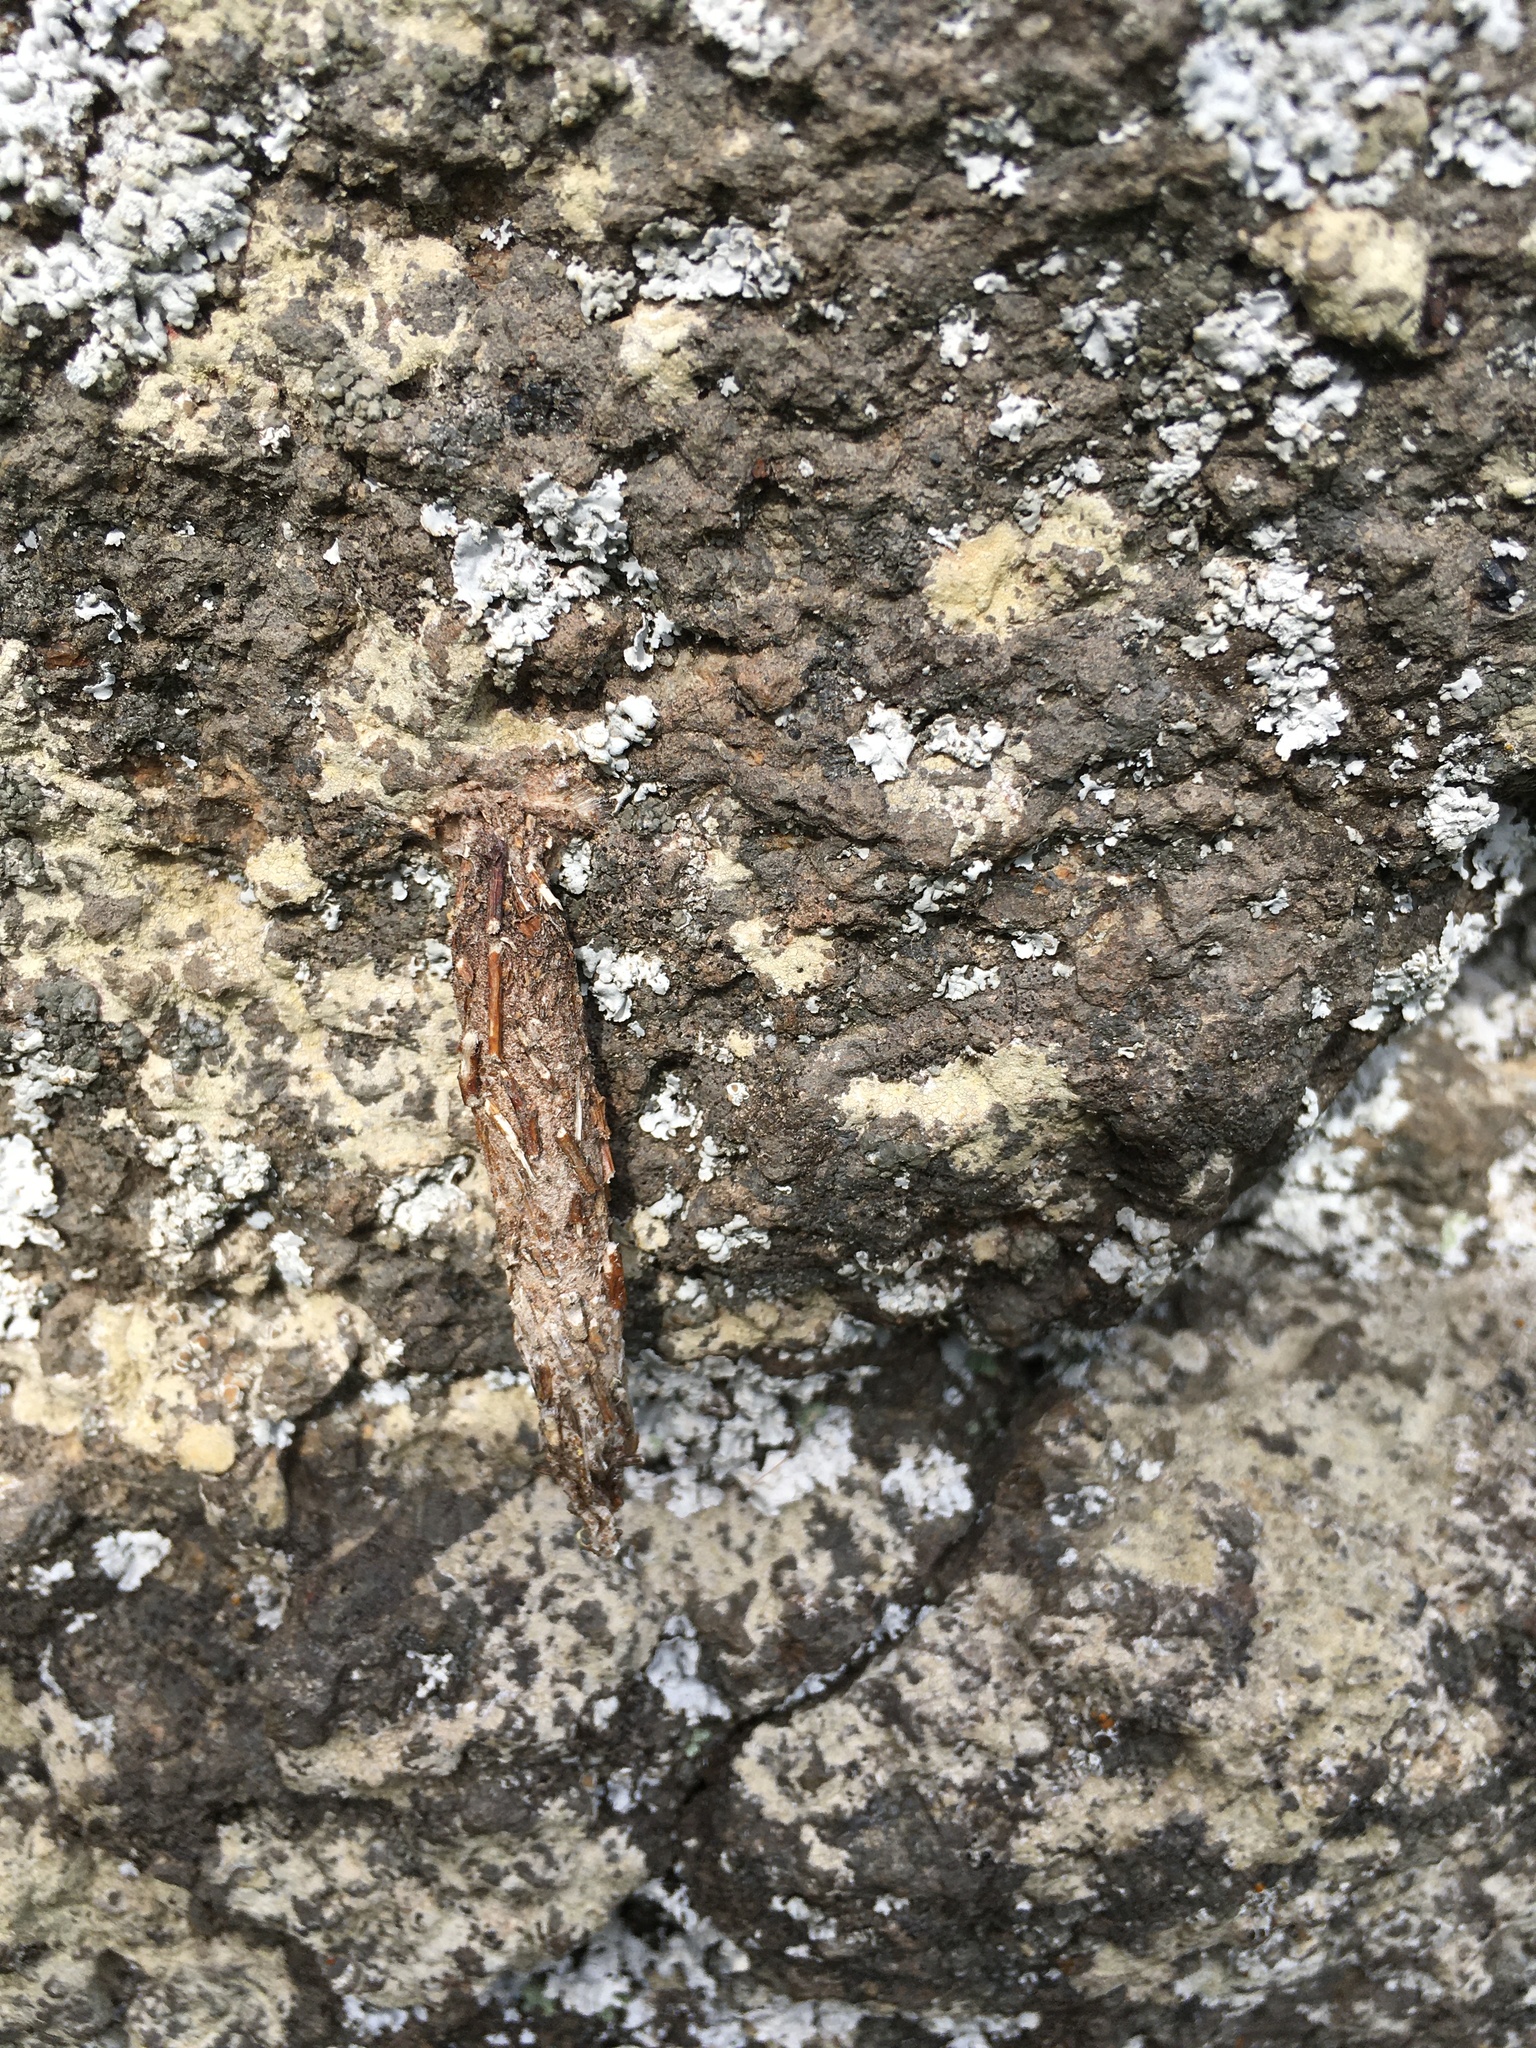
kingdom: Animalia
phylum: Arthropoda
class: Insecta
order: Lepidoptera
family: Psychidae
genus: Liothula
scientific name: Liothula omnivora
